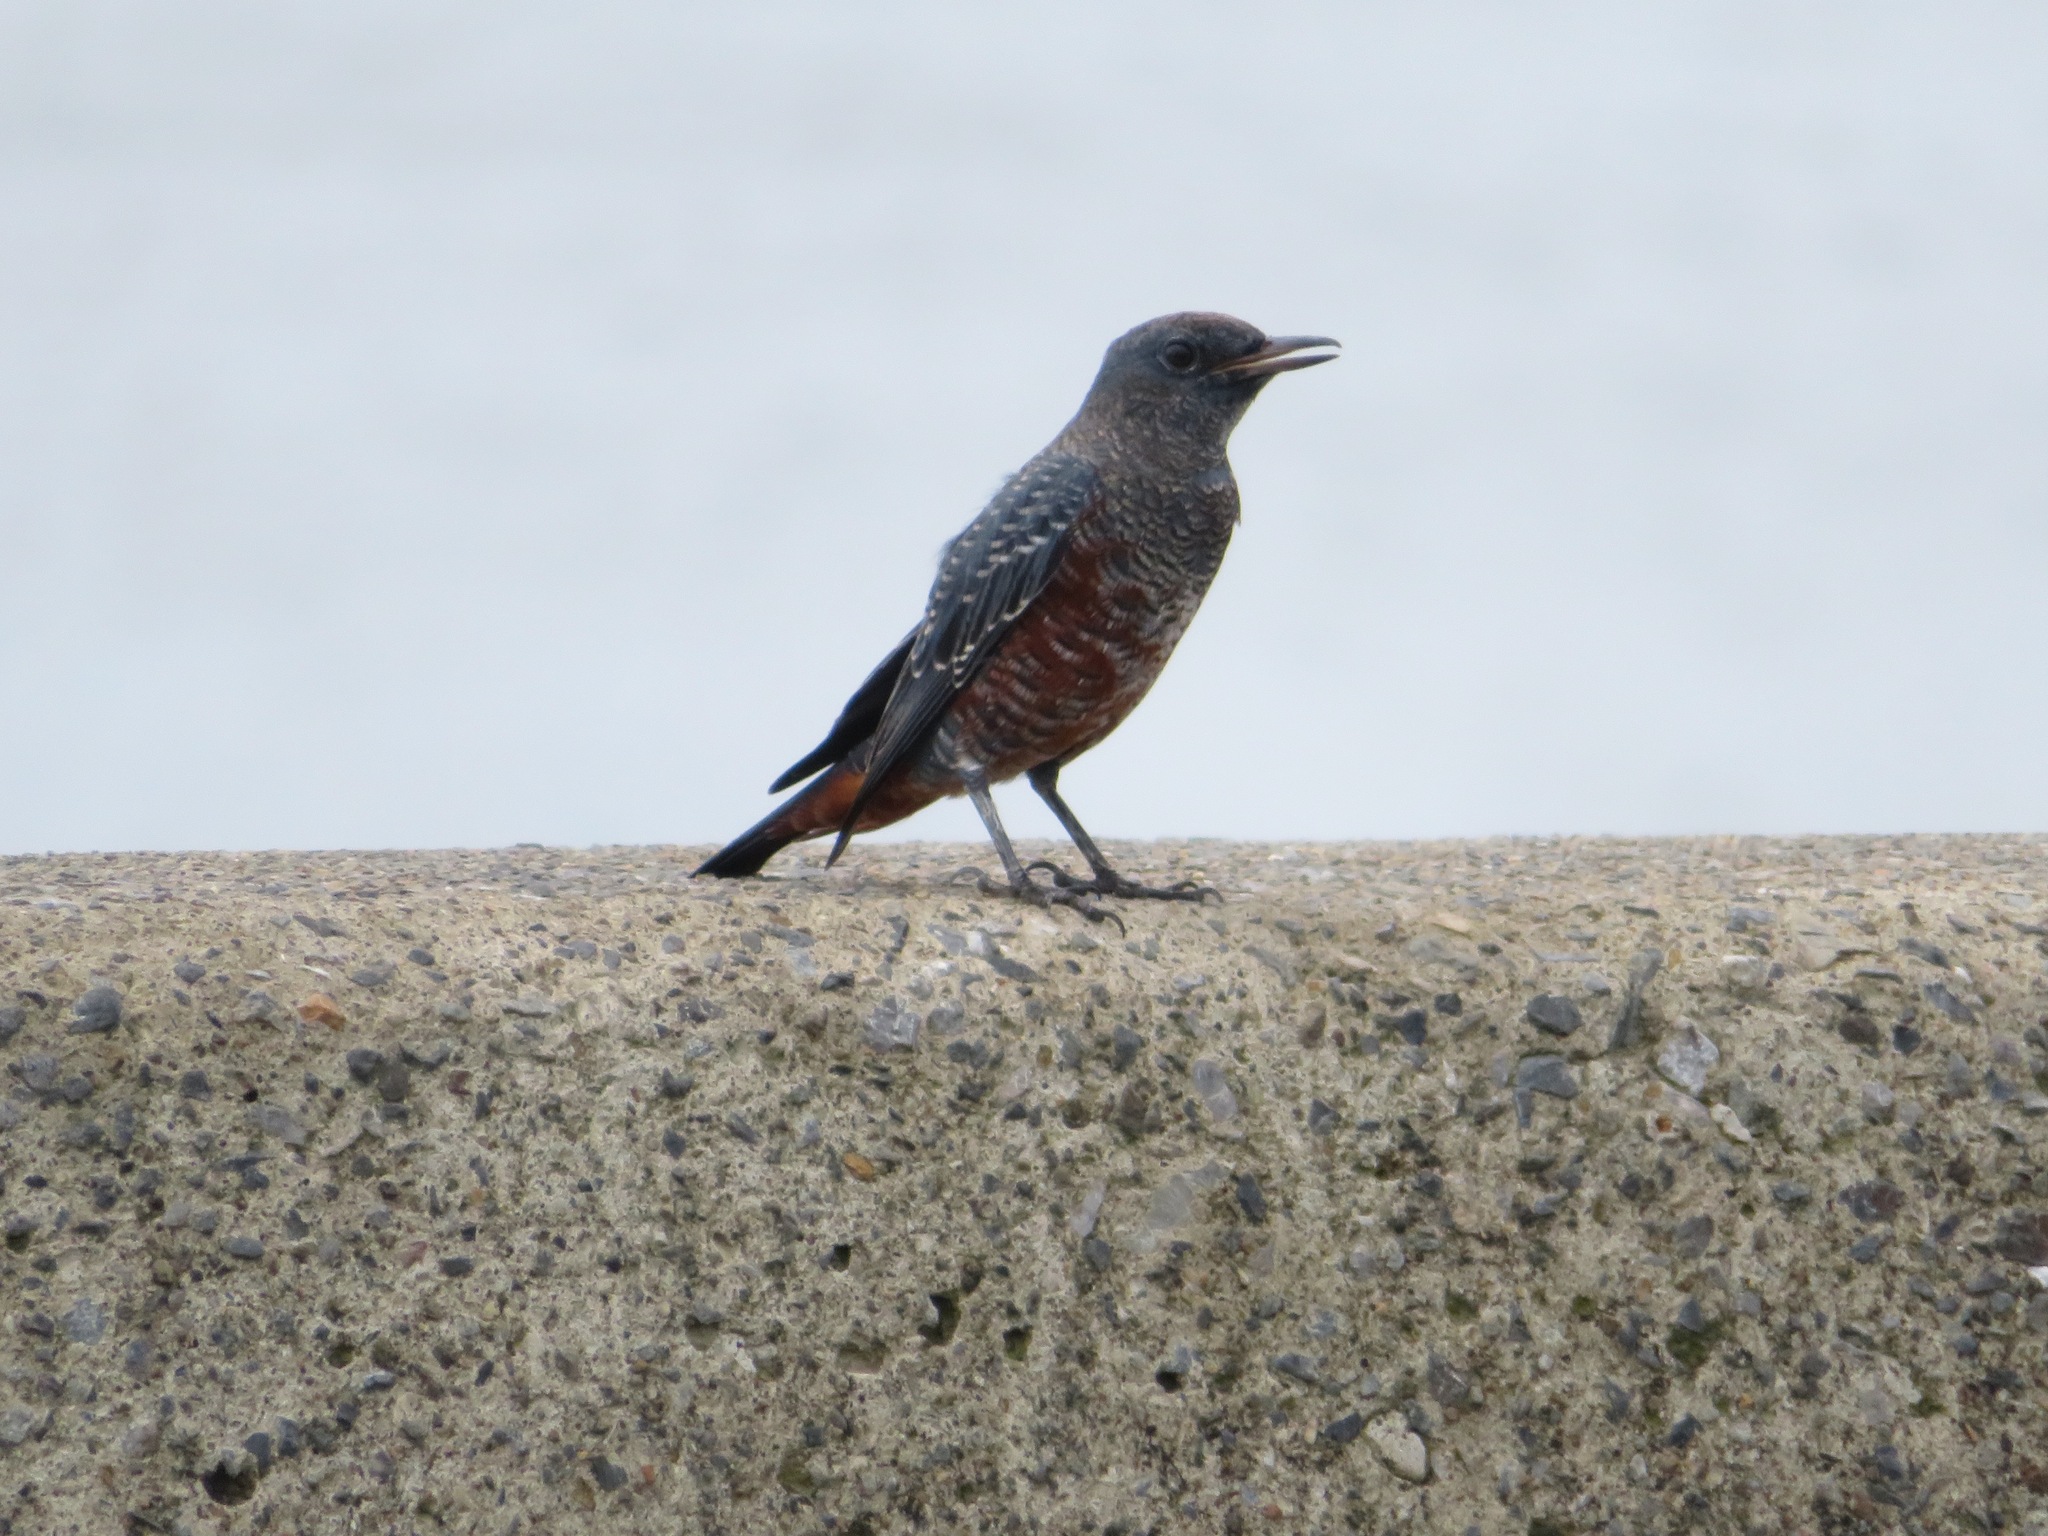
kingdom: Animalia
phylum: Chordata
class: Aves
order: Passeriformes
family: Muscicapidae
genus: Monticola
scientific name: Monticola solitarius
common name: Blue rock thrush
